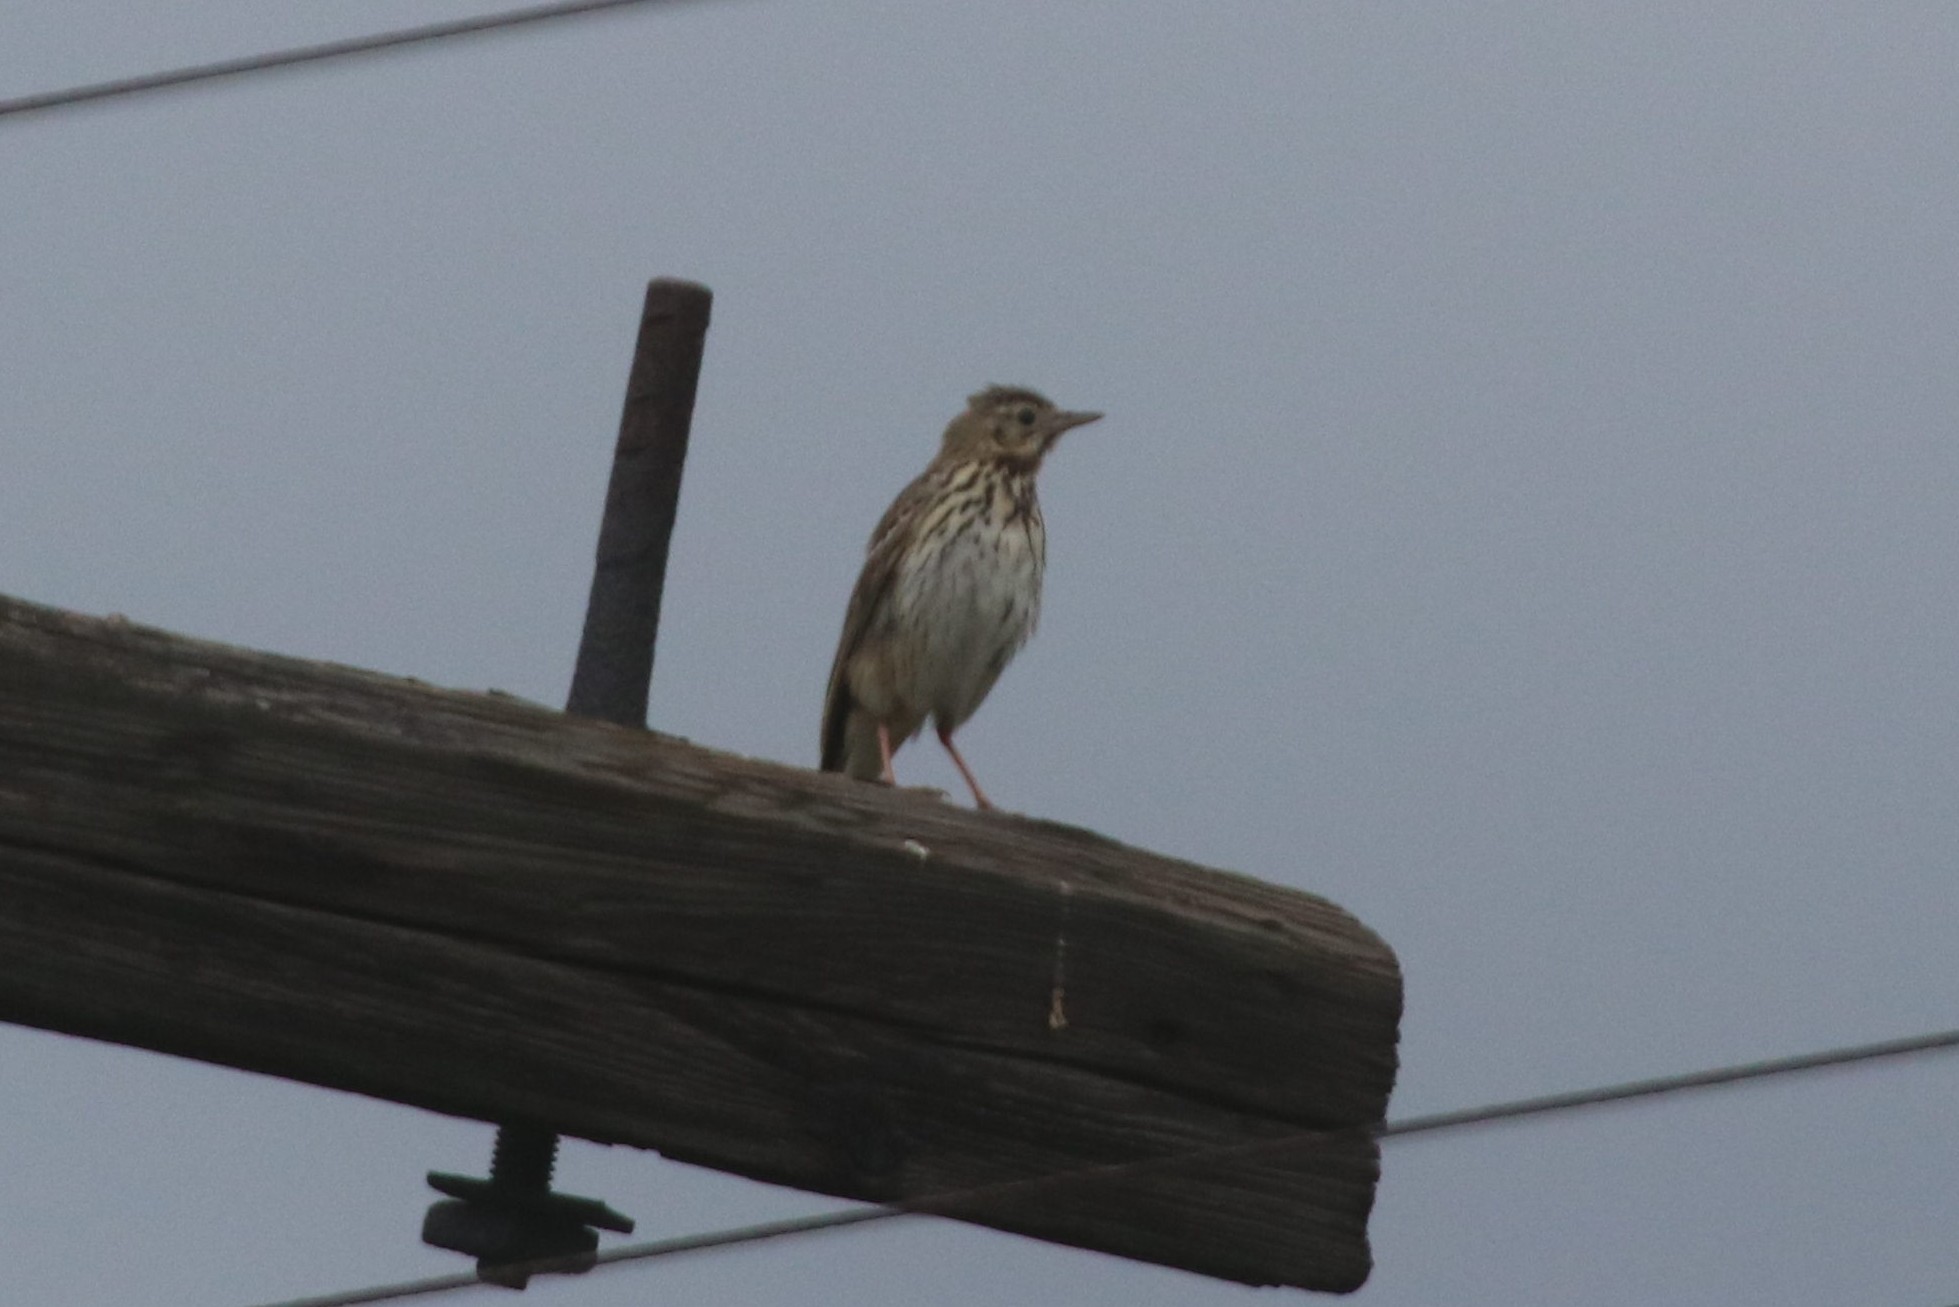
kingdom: Animalia
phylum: Chordata
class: Aves
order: Passeriformes
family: Motacillidae
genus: Anthus
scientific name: Anthus trivialis
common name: Tree pipit
